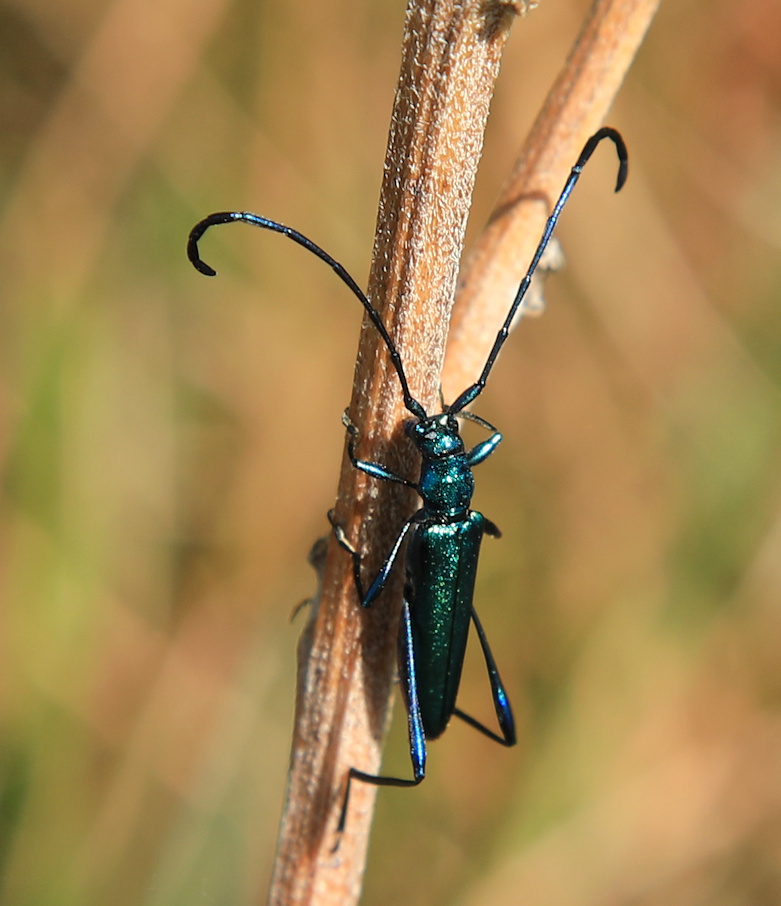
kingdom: Animalia
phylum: Arthropoda
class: Insecta
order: Coleoptera
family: Cerambycidae
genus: Promeces
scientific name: Promeces longipes
